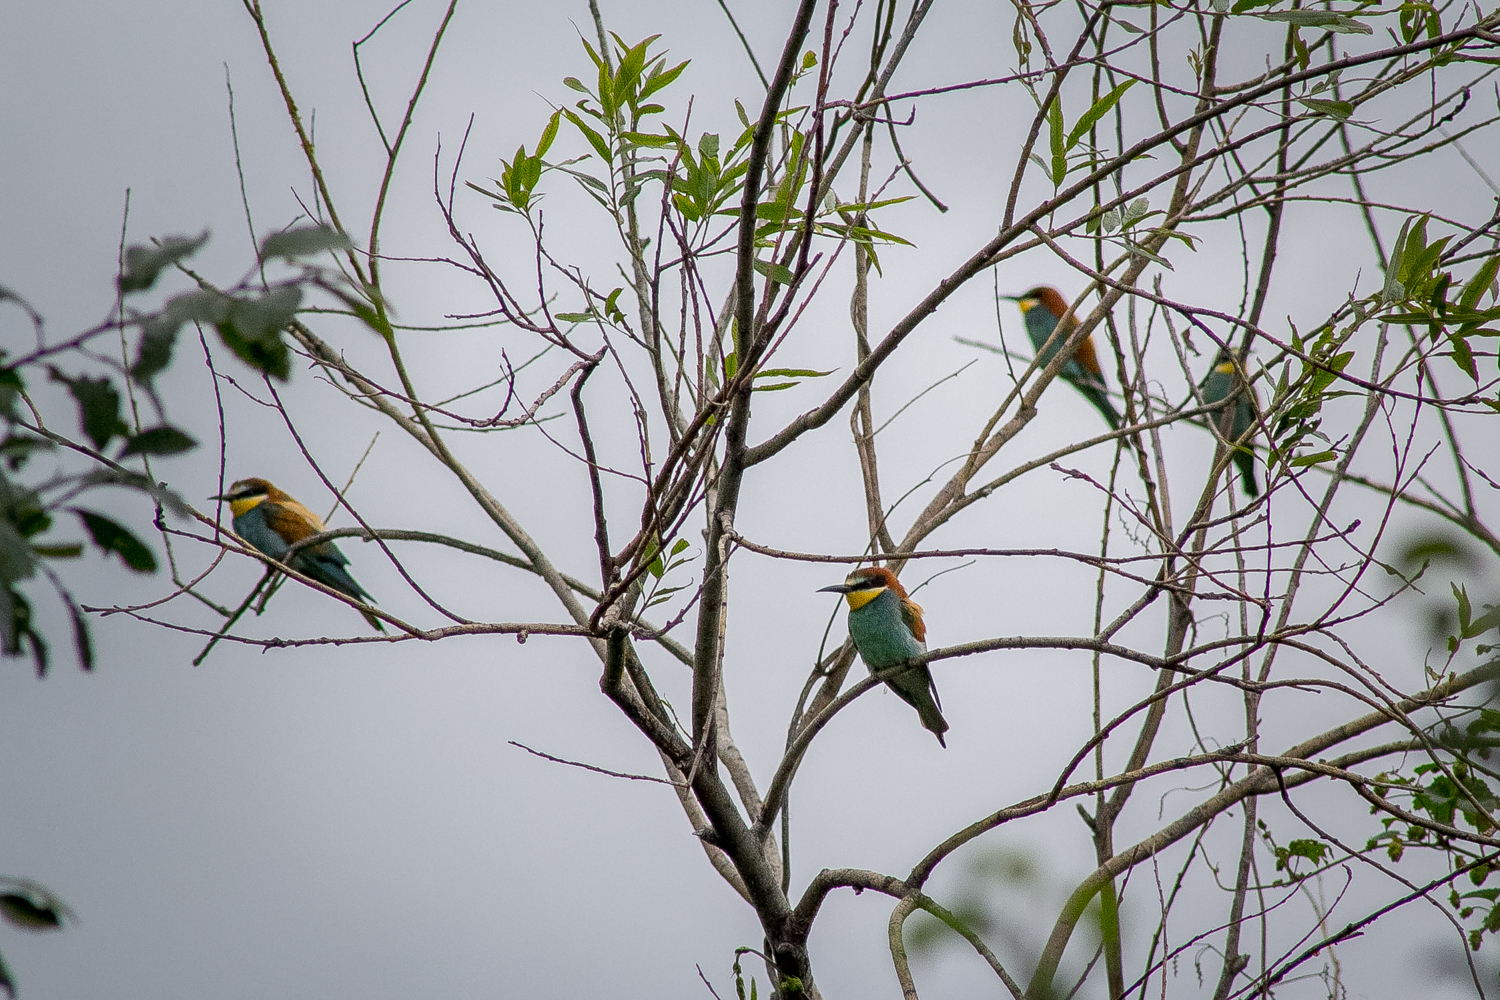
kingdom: Animalia
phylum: Chordata
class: Aves
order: Coraciiformes
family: Meropidae
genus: Merops
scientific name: Merops apiaster
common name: European bee-eater
